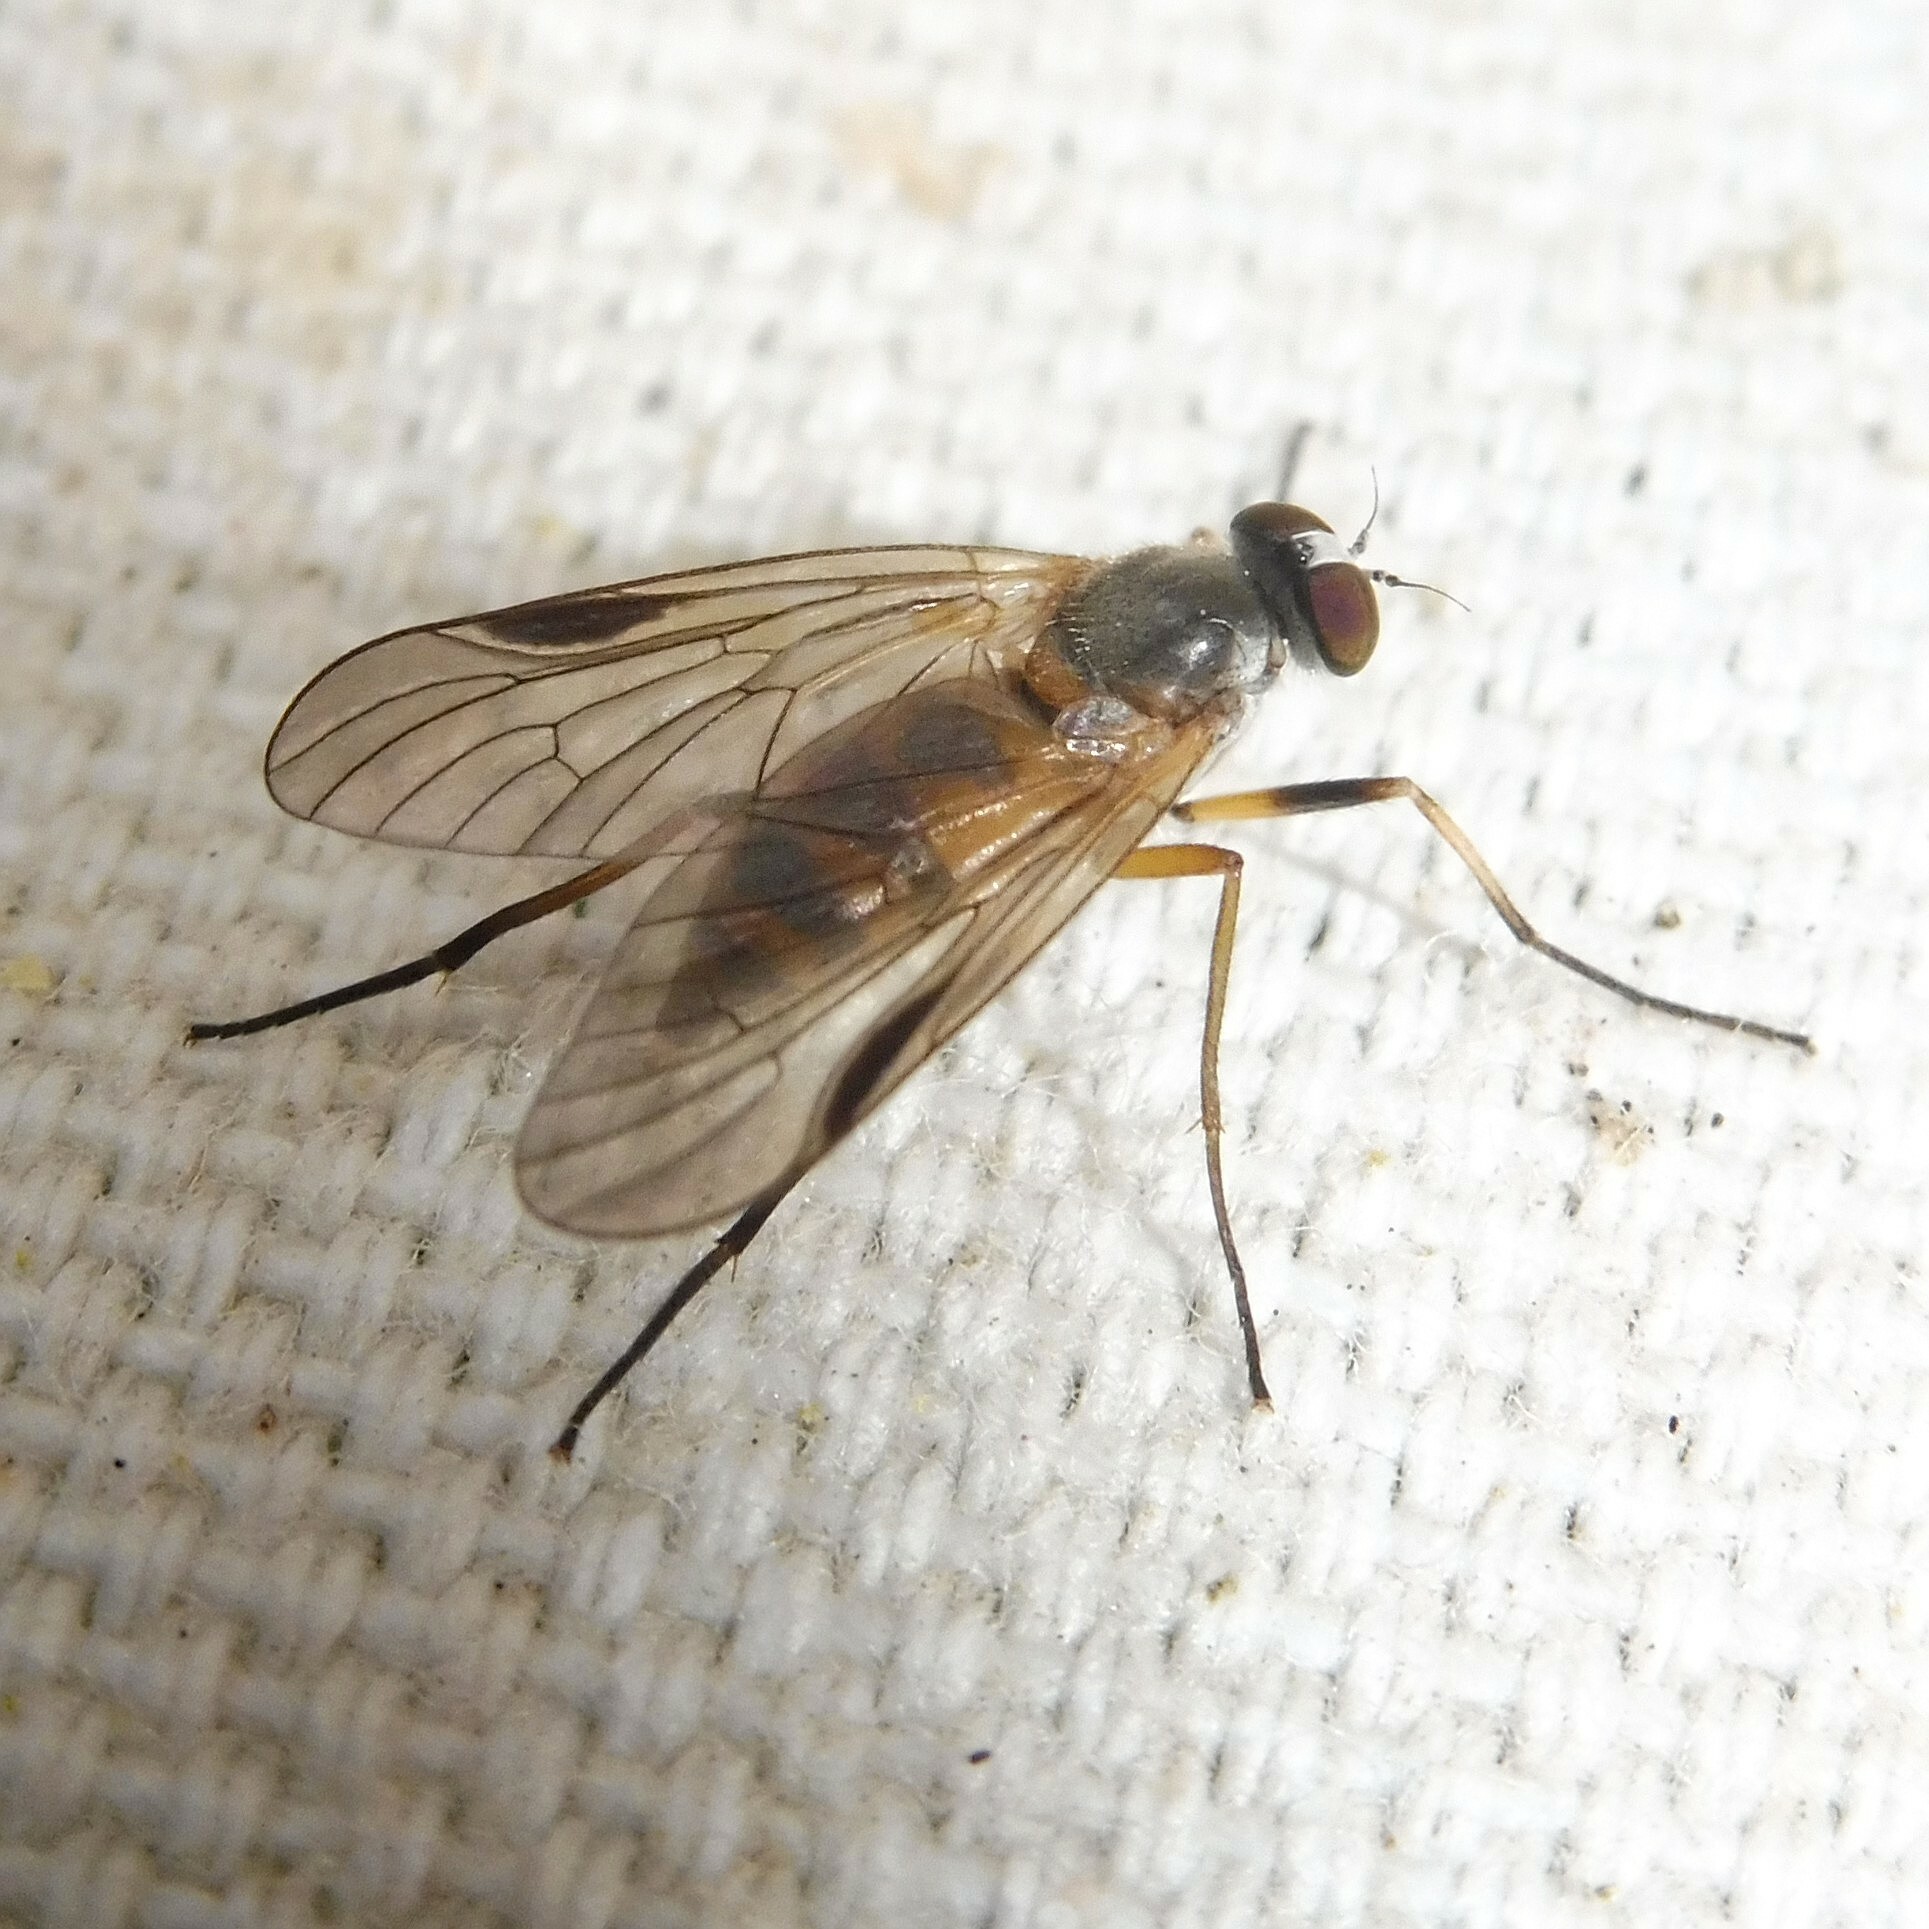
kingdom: Animalia
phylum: Arthropoda
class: Insecta
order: Diptera
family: Rhagionidae
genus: Rhagio
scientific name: Rhagio lineola
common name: Small fleck-winged snipefly
